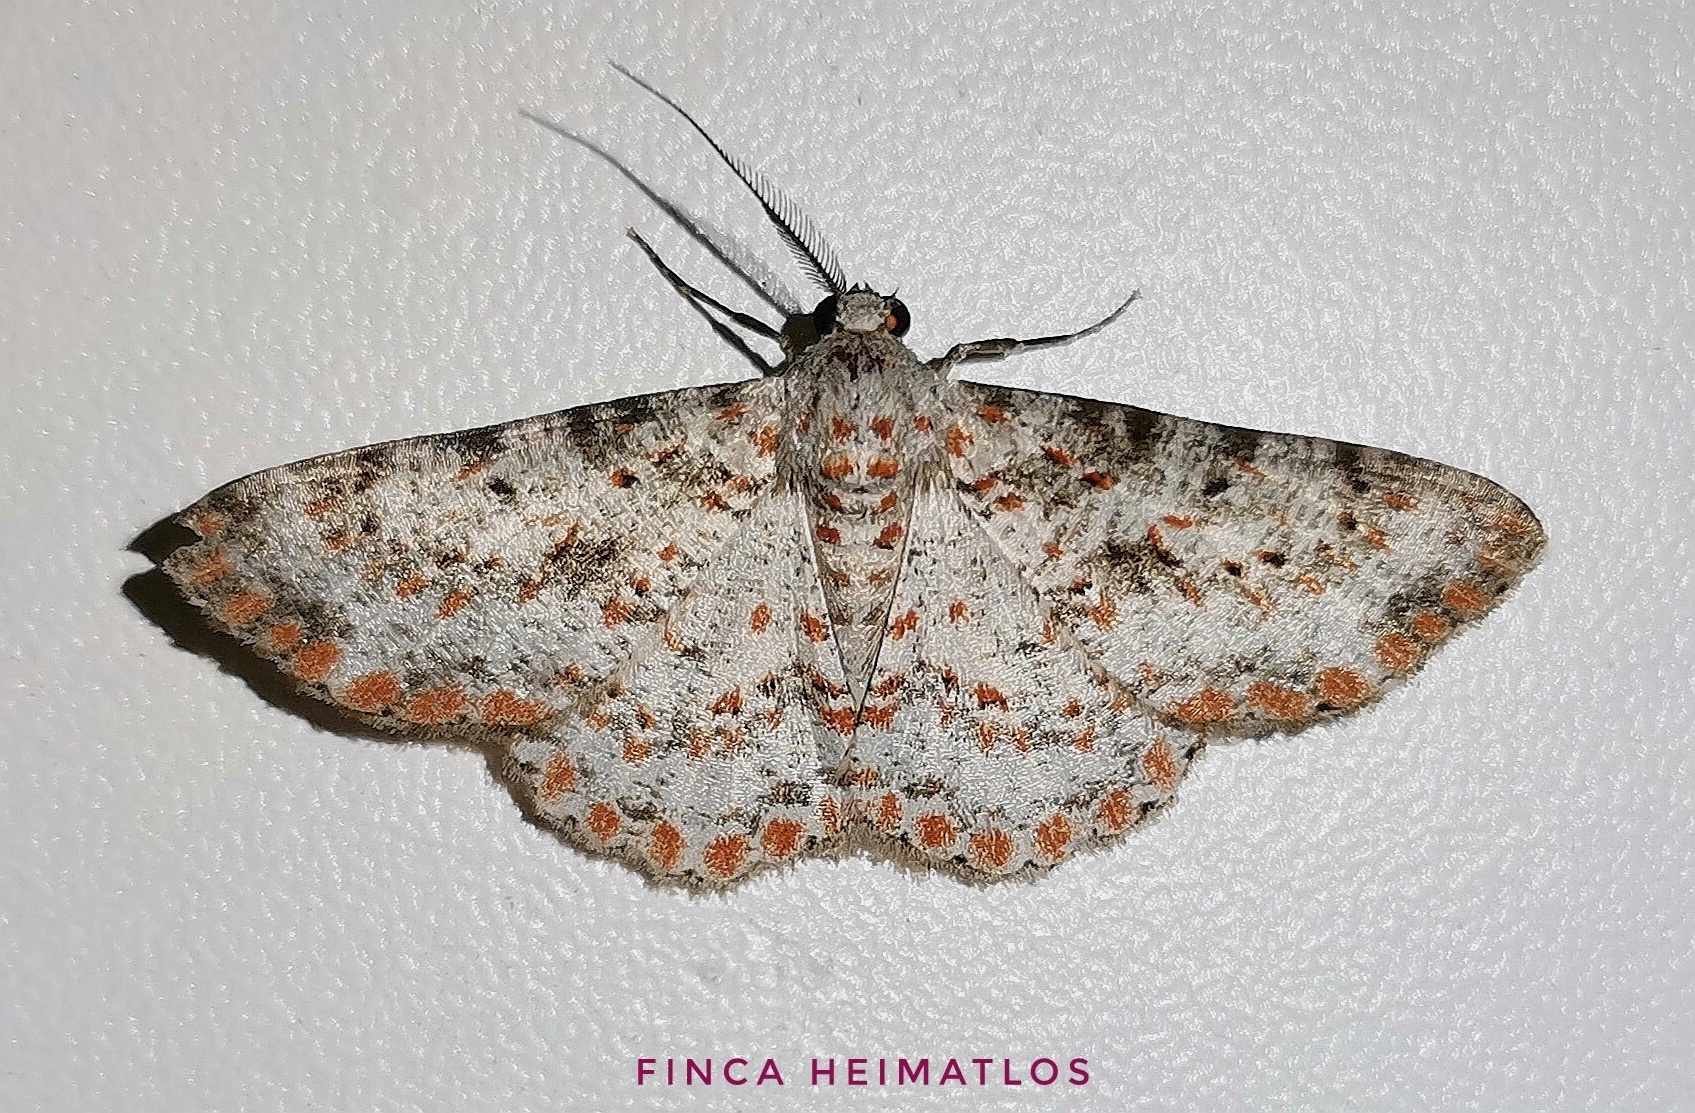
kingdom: Animalia
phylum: Arthropoda
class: Insecta
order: Lepidoptera
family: Geometridae
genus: Stenalcidia
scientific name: Stenalcidia sanguistellata
